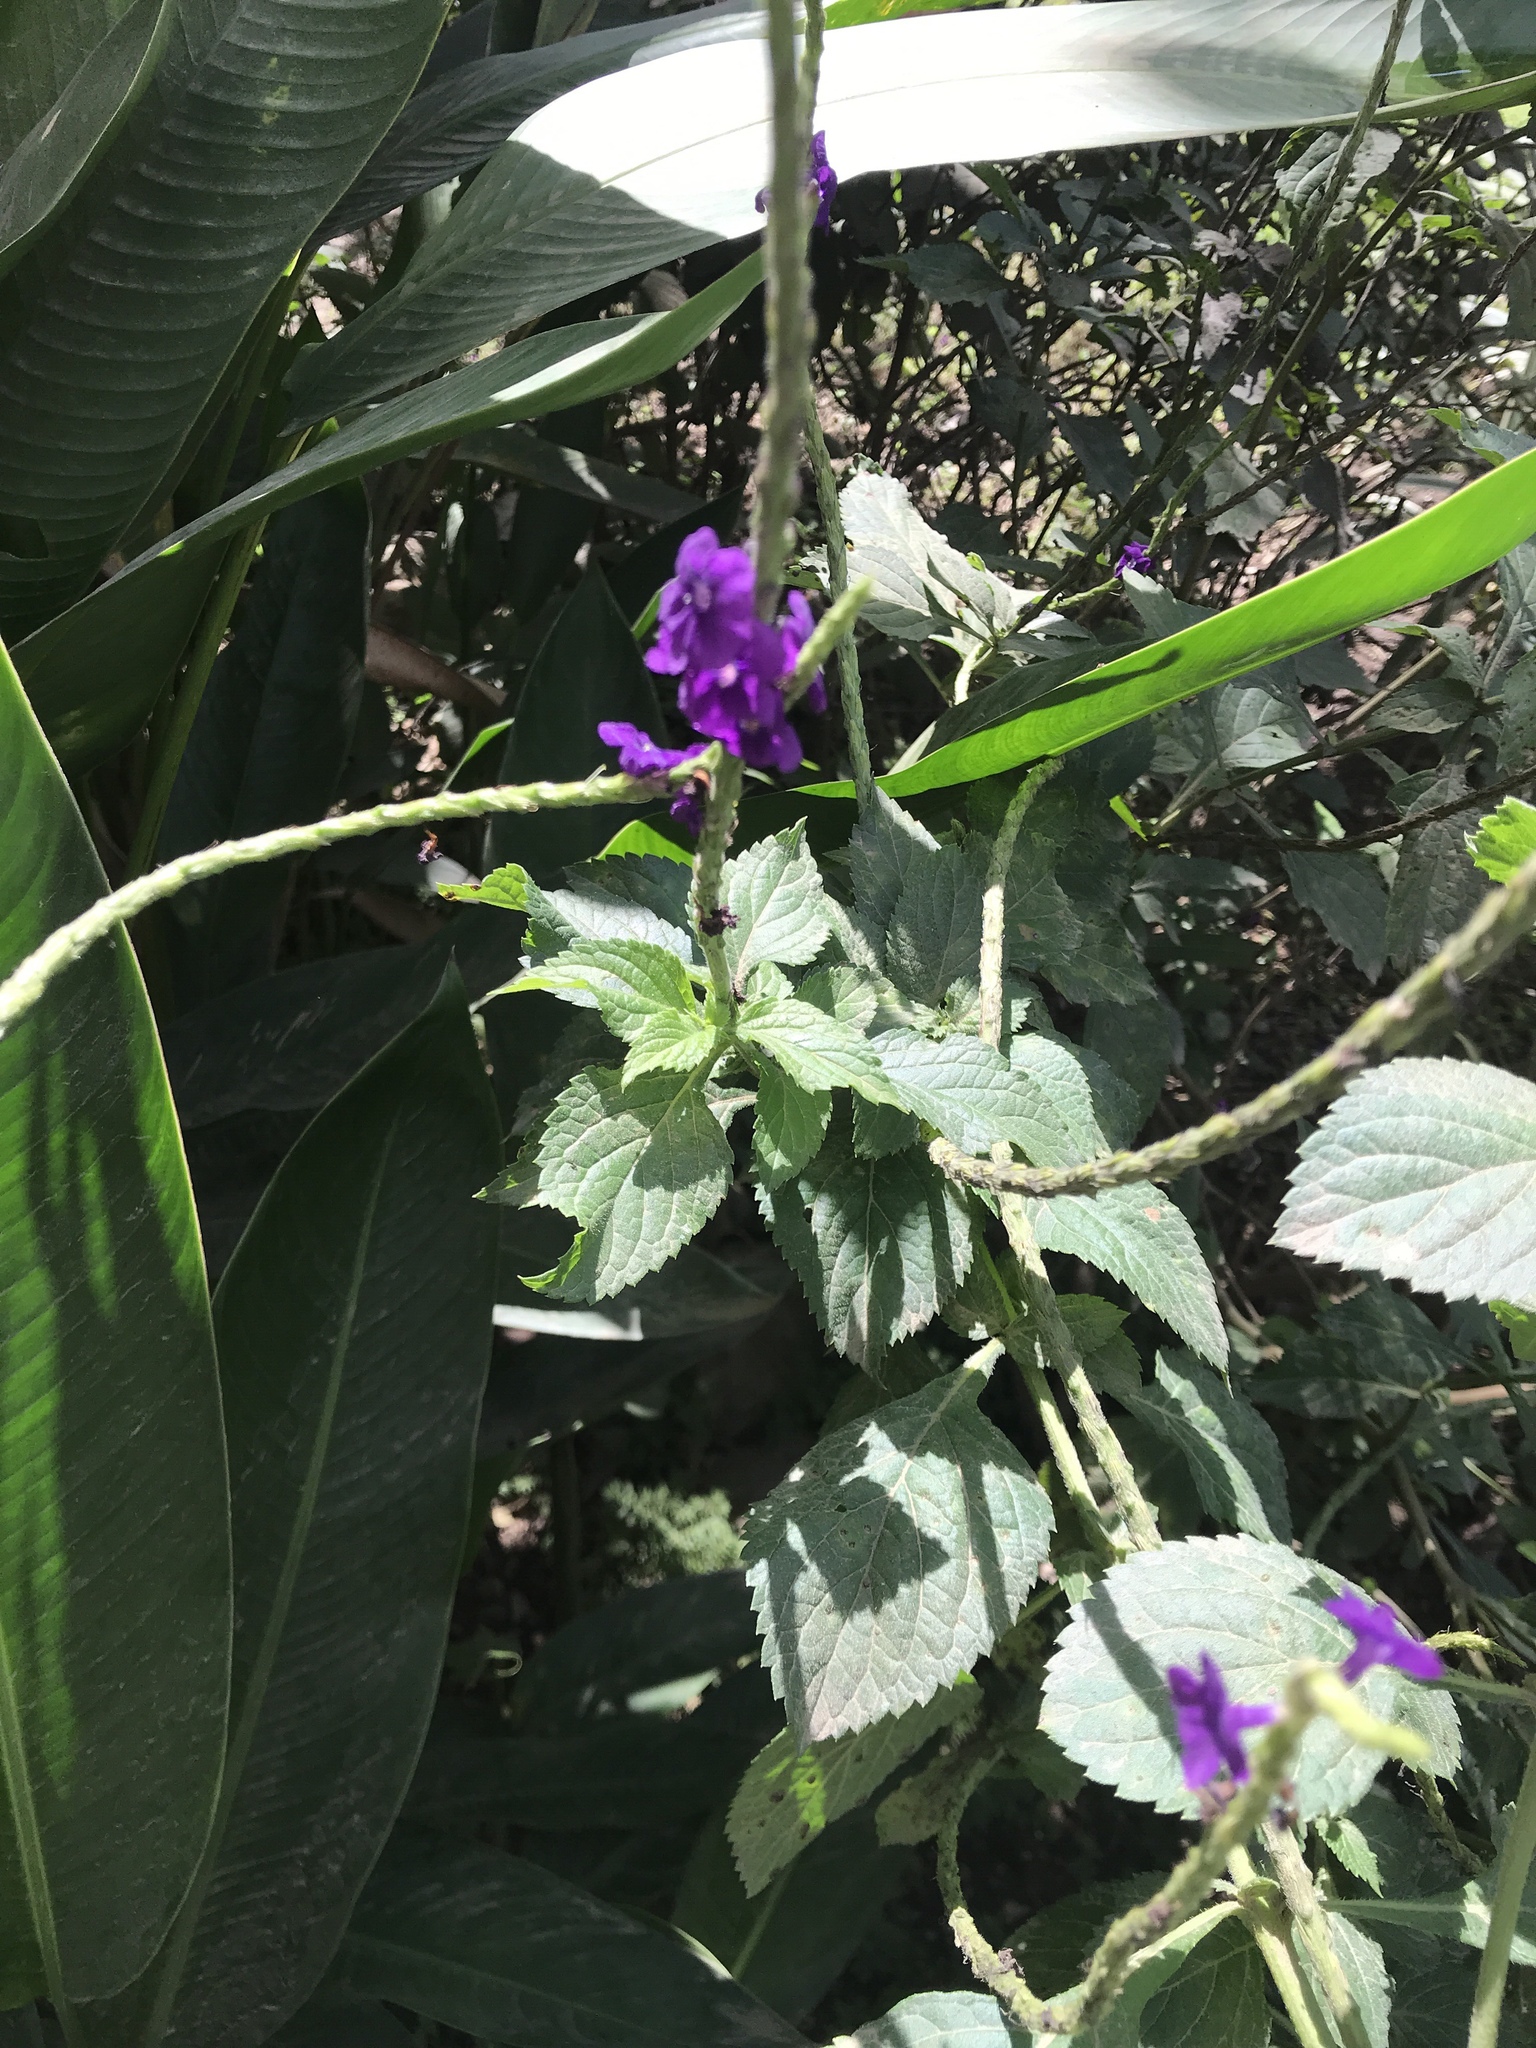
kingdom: Plantae
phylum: Tracheophyta
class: Magnoliopsida
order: Lamiales
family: Verbenaceae
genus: Stachytarpheta
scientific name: Stachytarpheta jamaicensis
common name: Light-blue snakeweed
